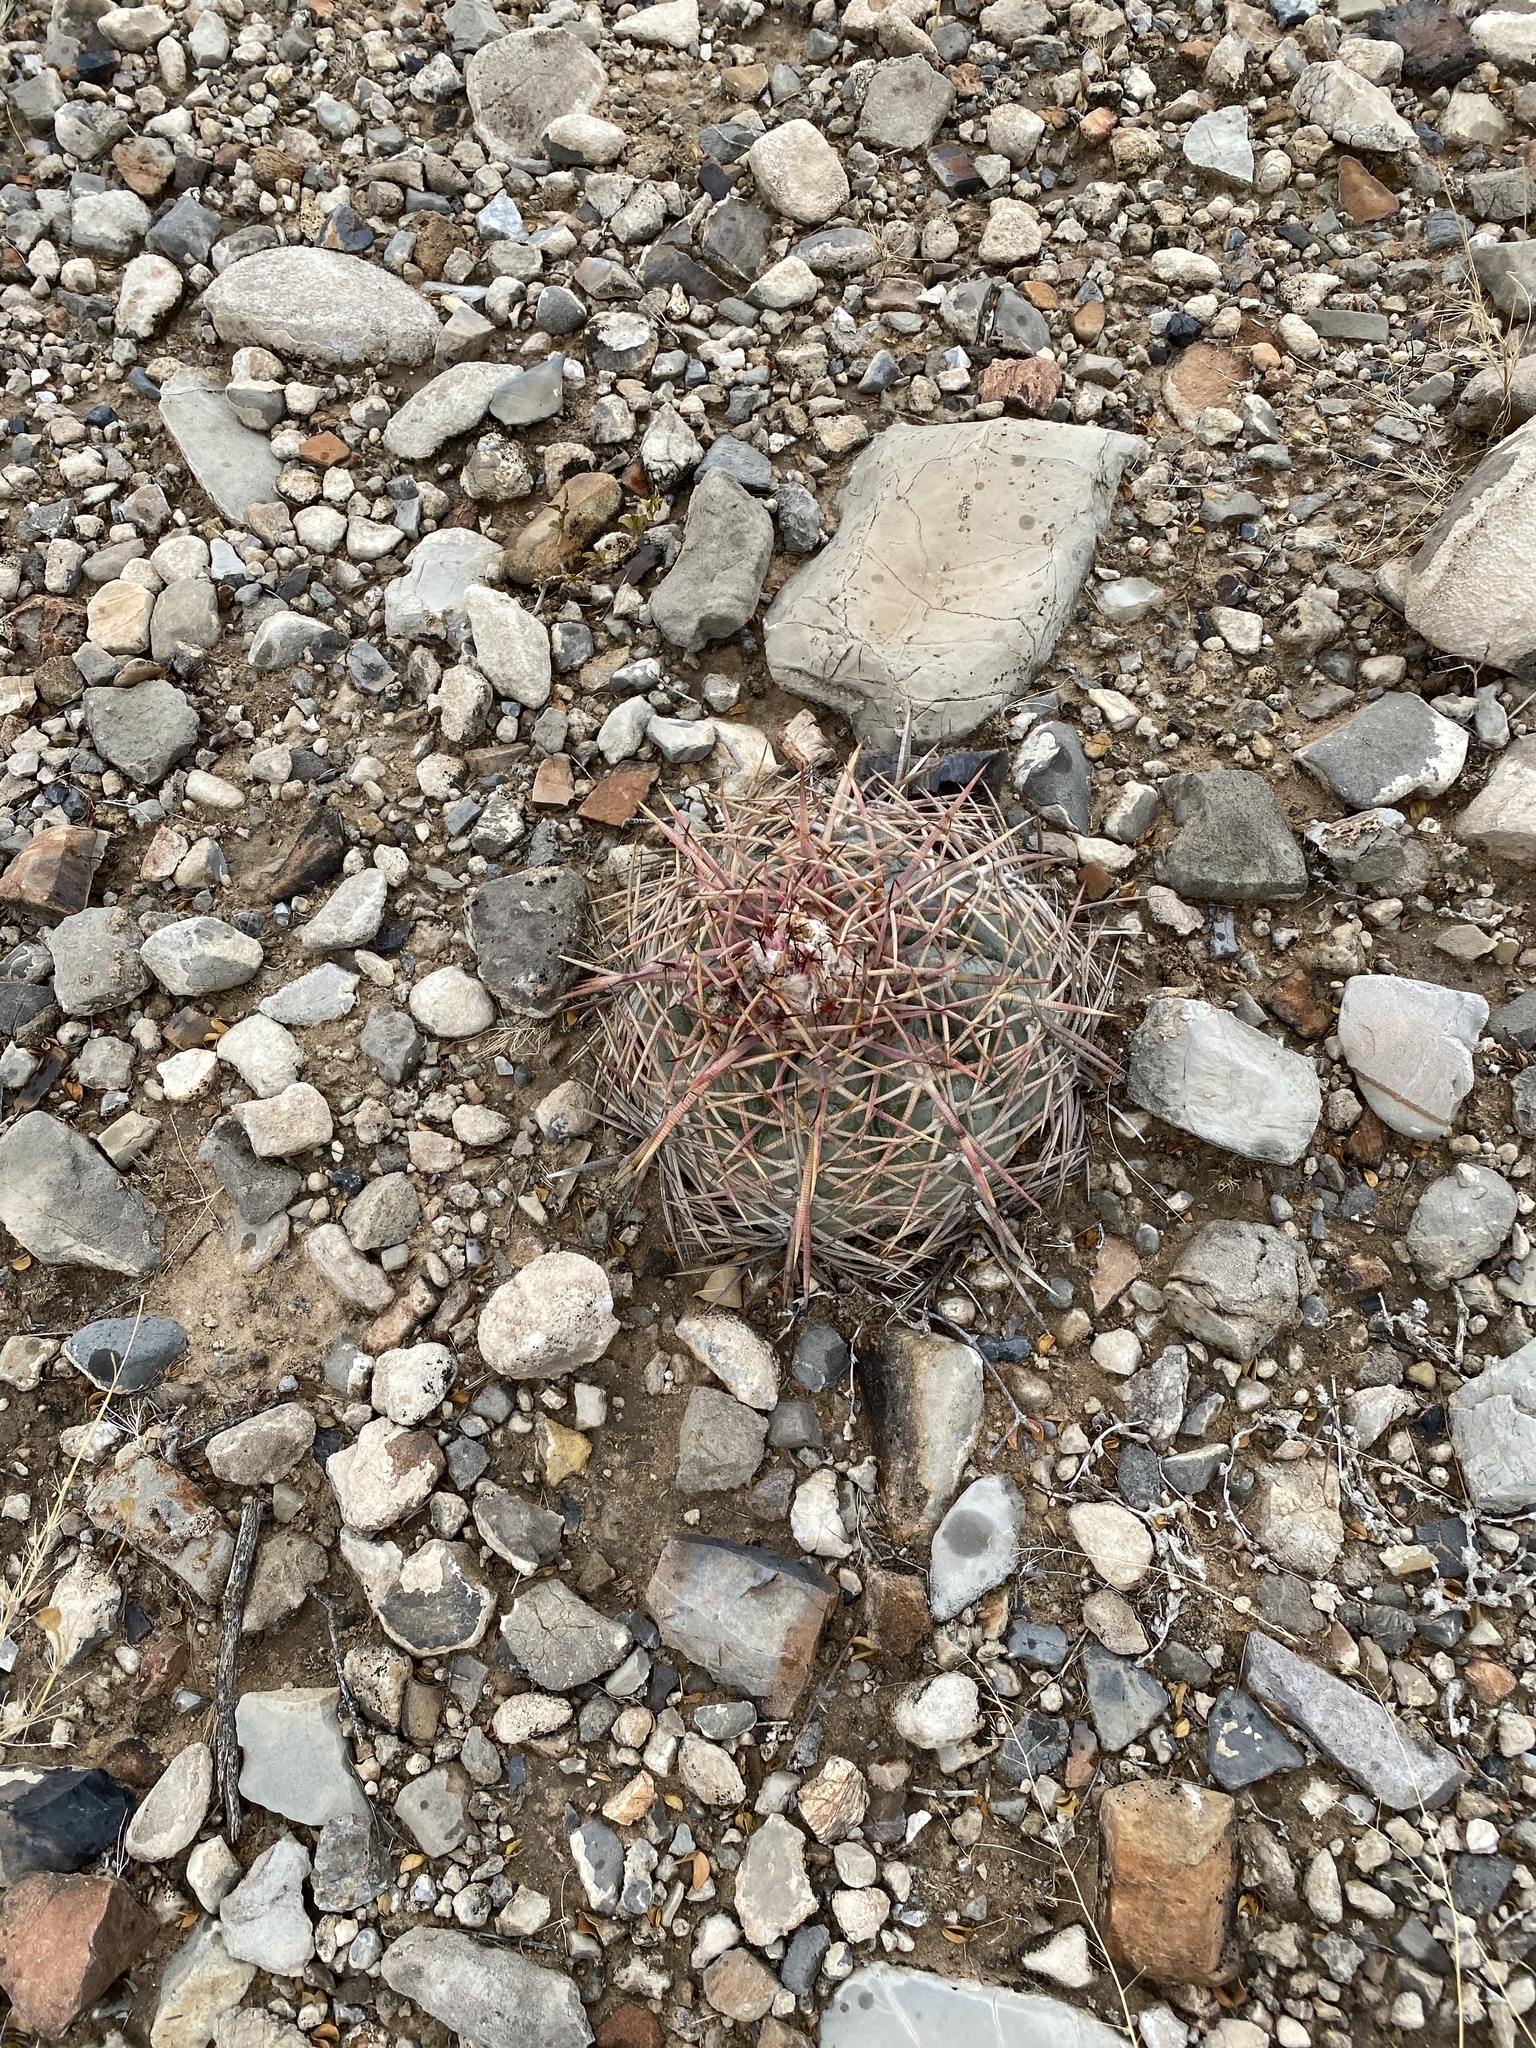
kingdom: Plantae
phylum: Tracheophyta
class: Magnoliopsida
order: Caryophyllales
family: Cactaceae
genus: Echinocactus
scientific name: Echinocactus horizonthalonius
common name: Devilshead
